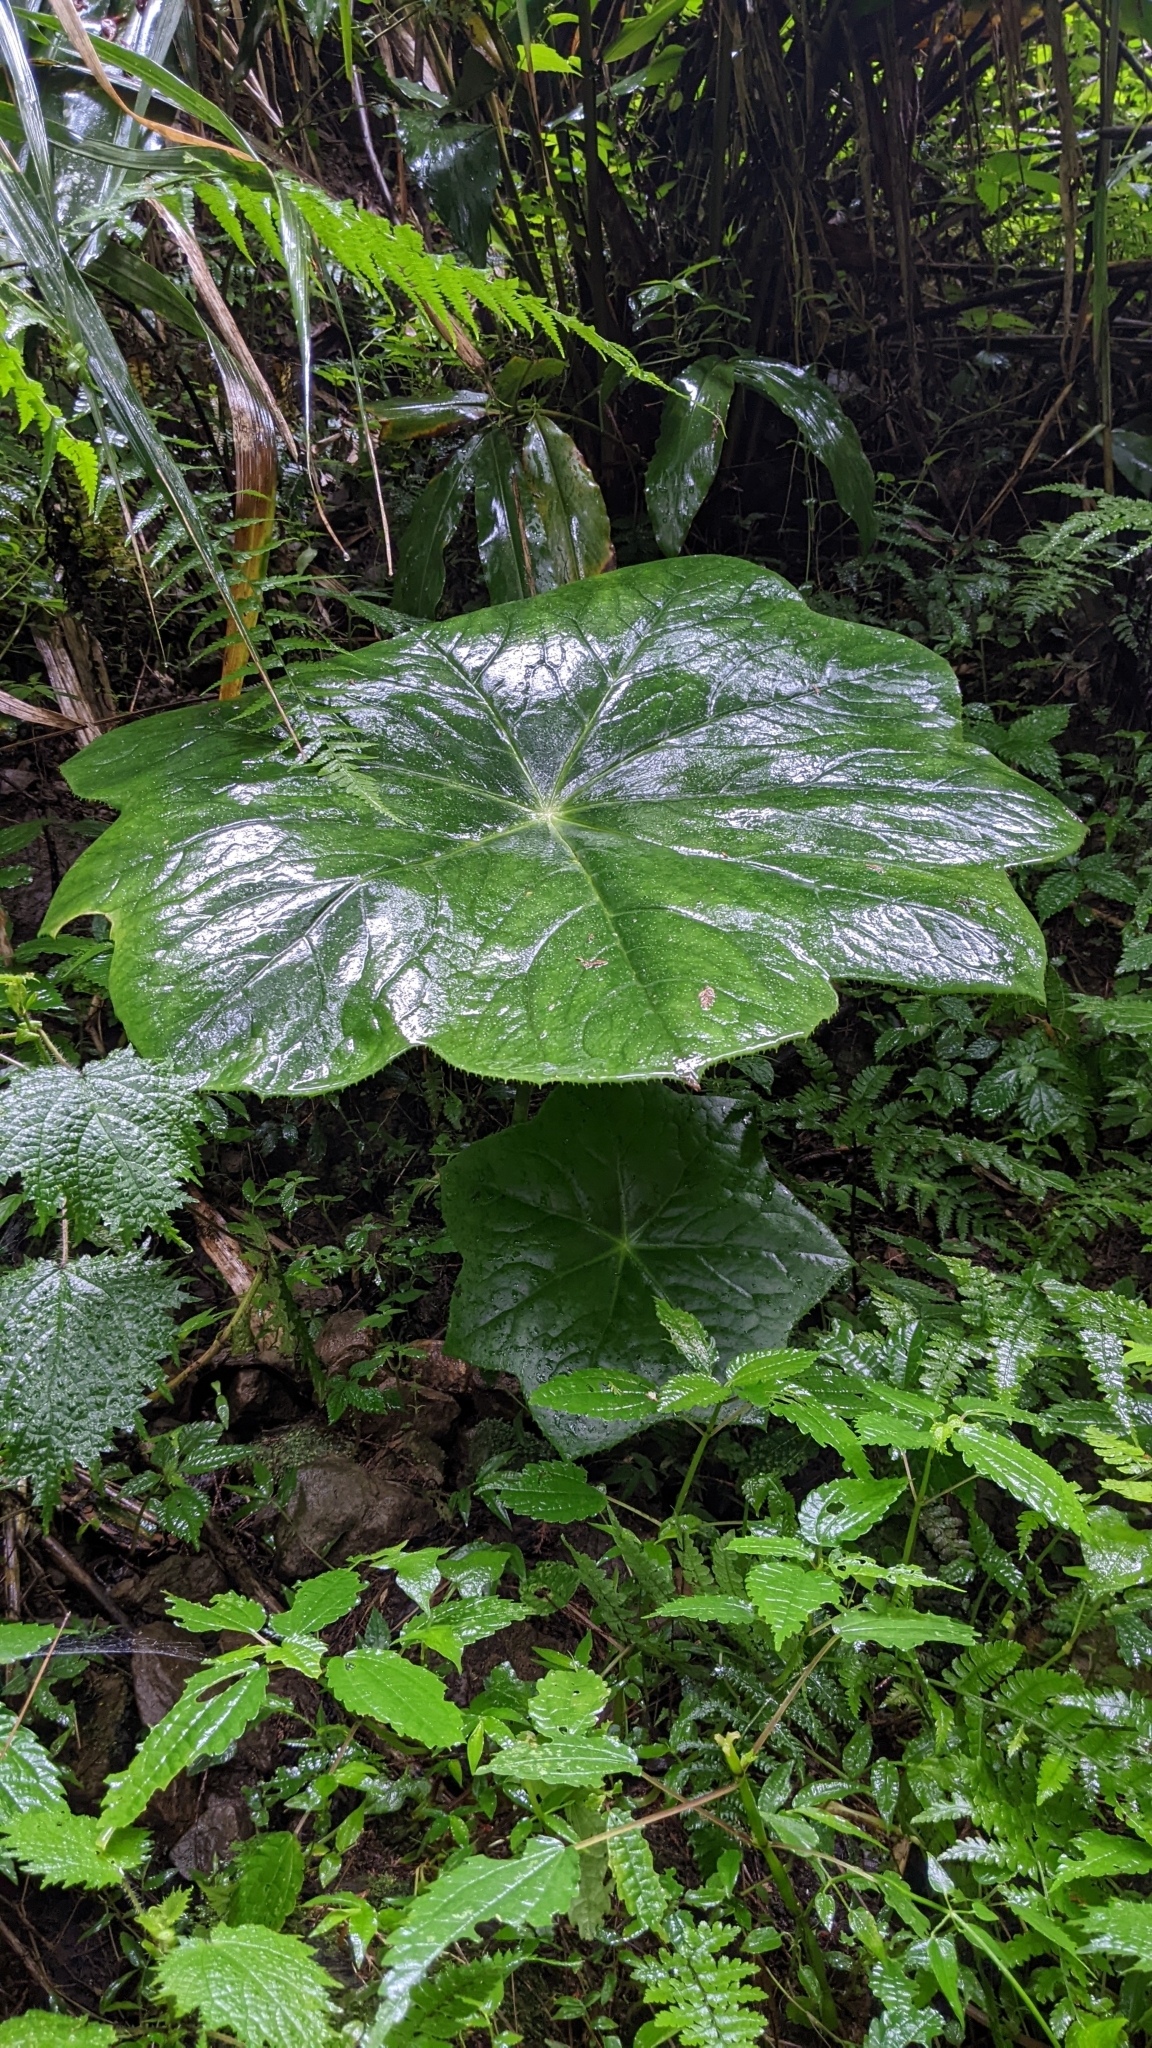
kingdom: Plantae
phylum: Tracheophyta
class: Magnoliopsida
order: Ranunculales
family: Berberidaceae
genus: Dysosma
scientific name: Dysosma pleiantha
